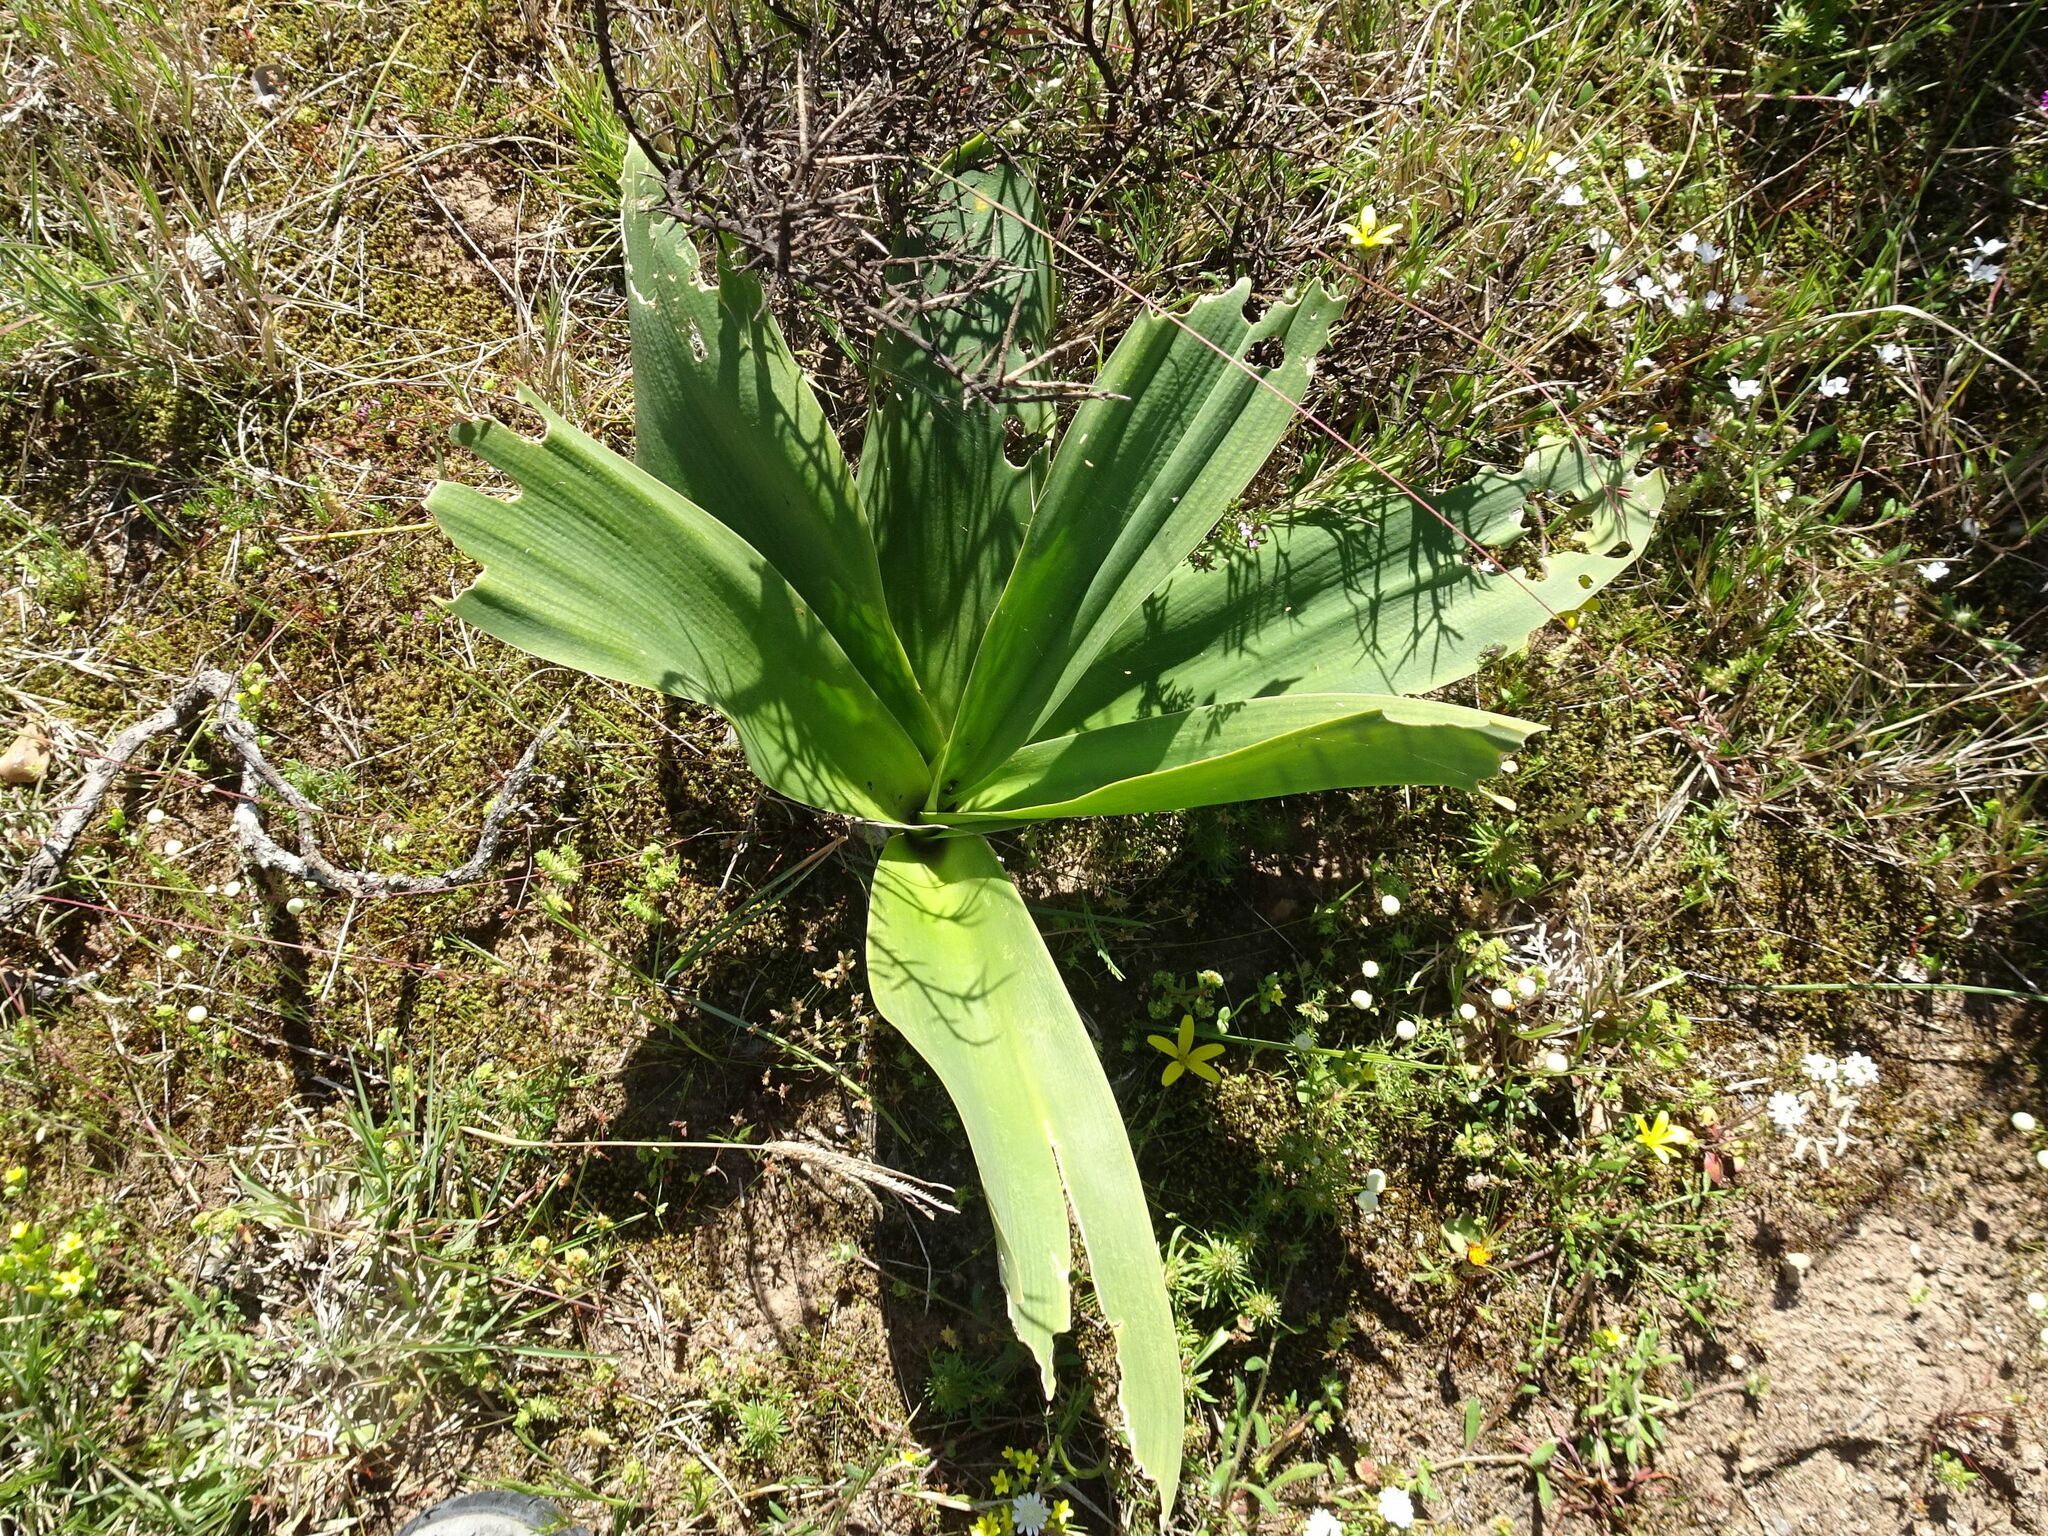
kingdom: Plantae
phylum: Tracheophyta
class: Liliopsida
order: Asparagales
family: Asparagaceae
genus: Drimia
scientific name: Drimia capensis
